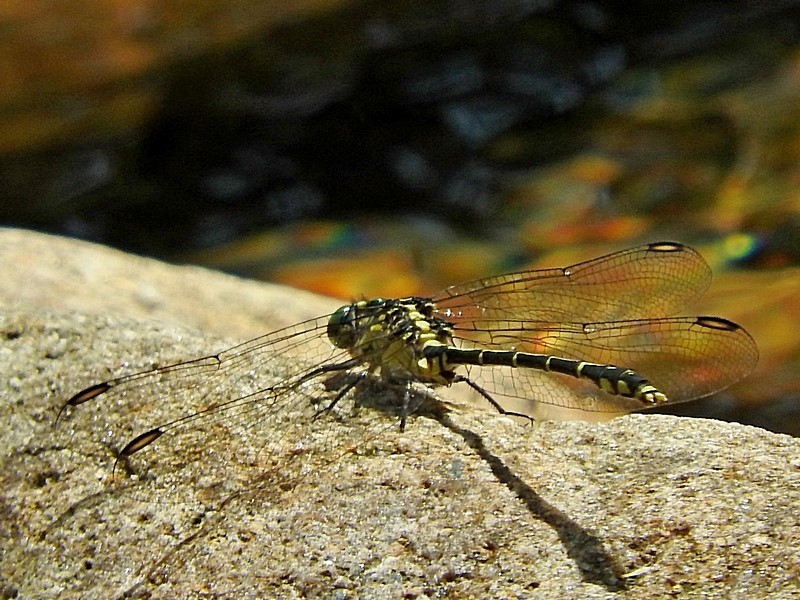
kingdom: Animalia
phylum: Arthropoda
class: Insecta
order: Odonata
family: Gomphidae
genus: Austrogomphus
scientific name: Austrogomphus ochraceus
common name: Jade hunter
